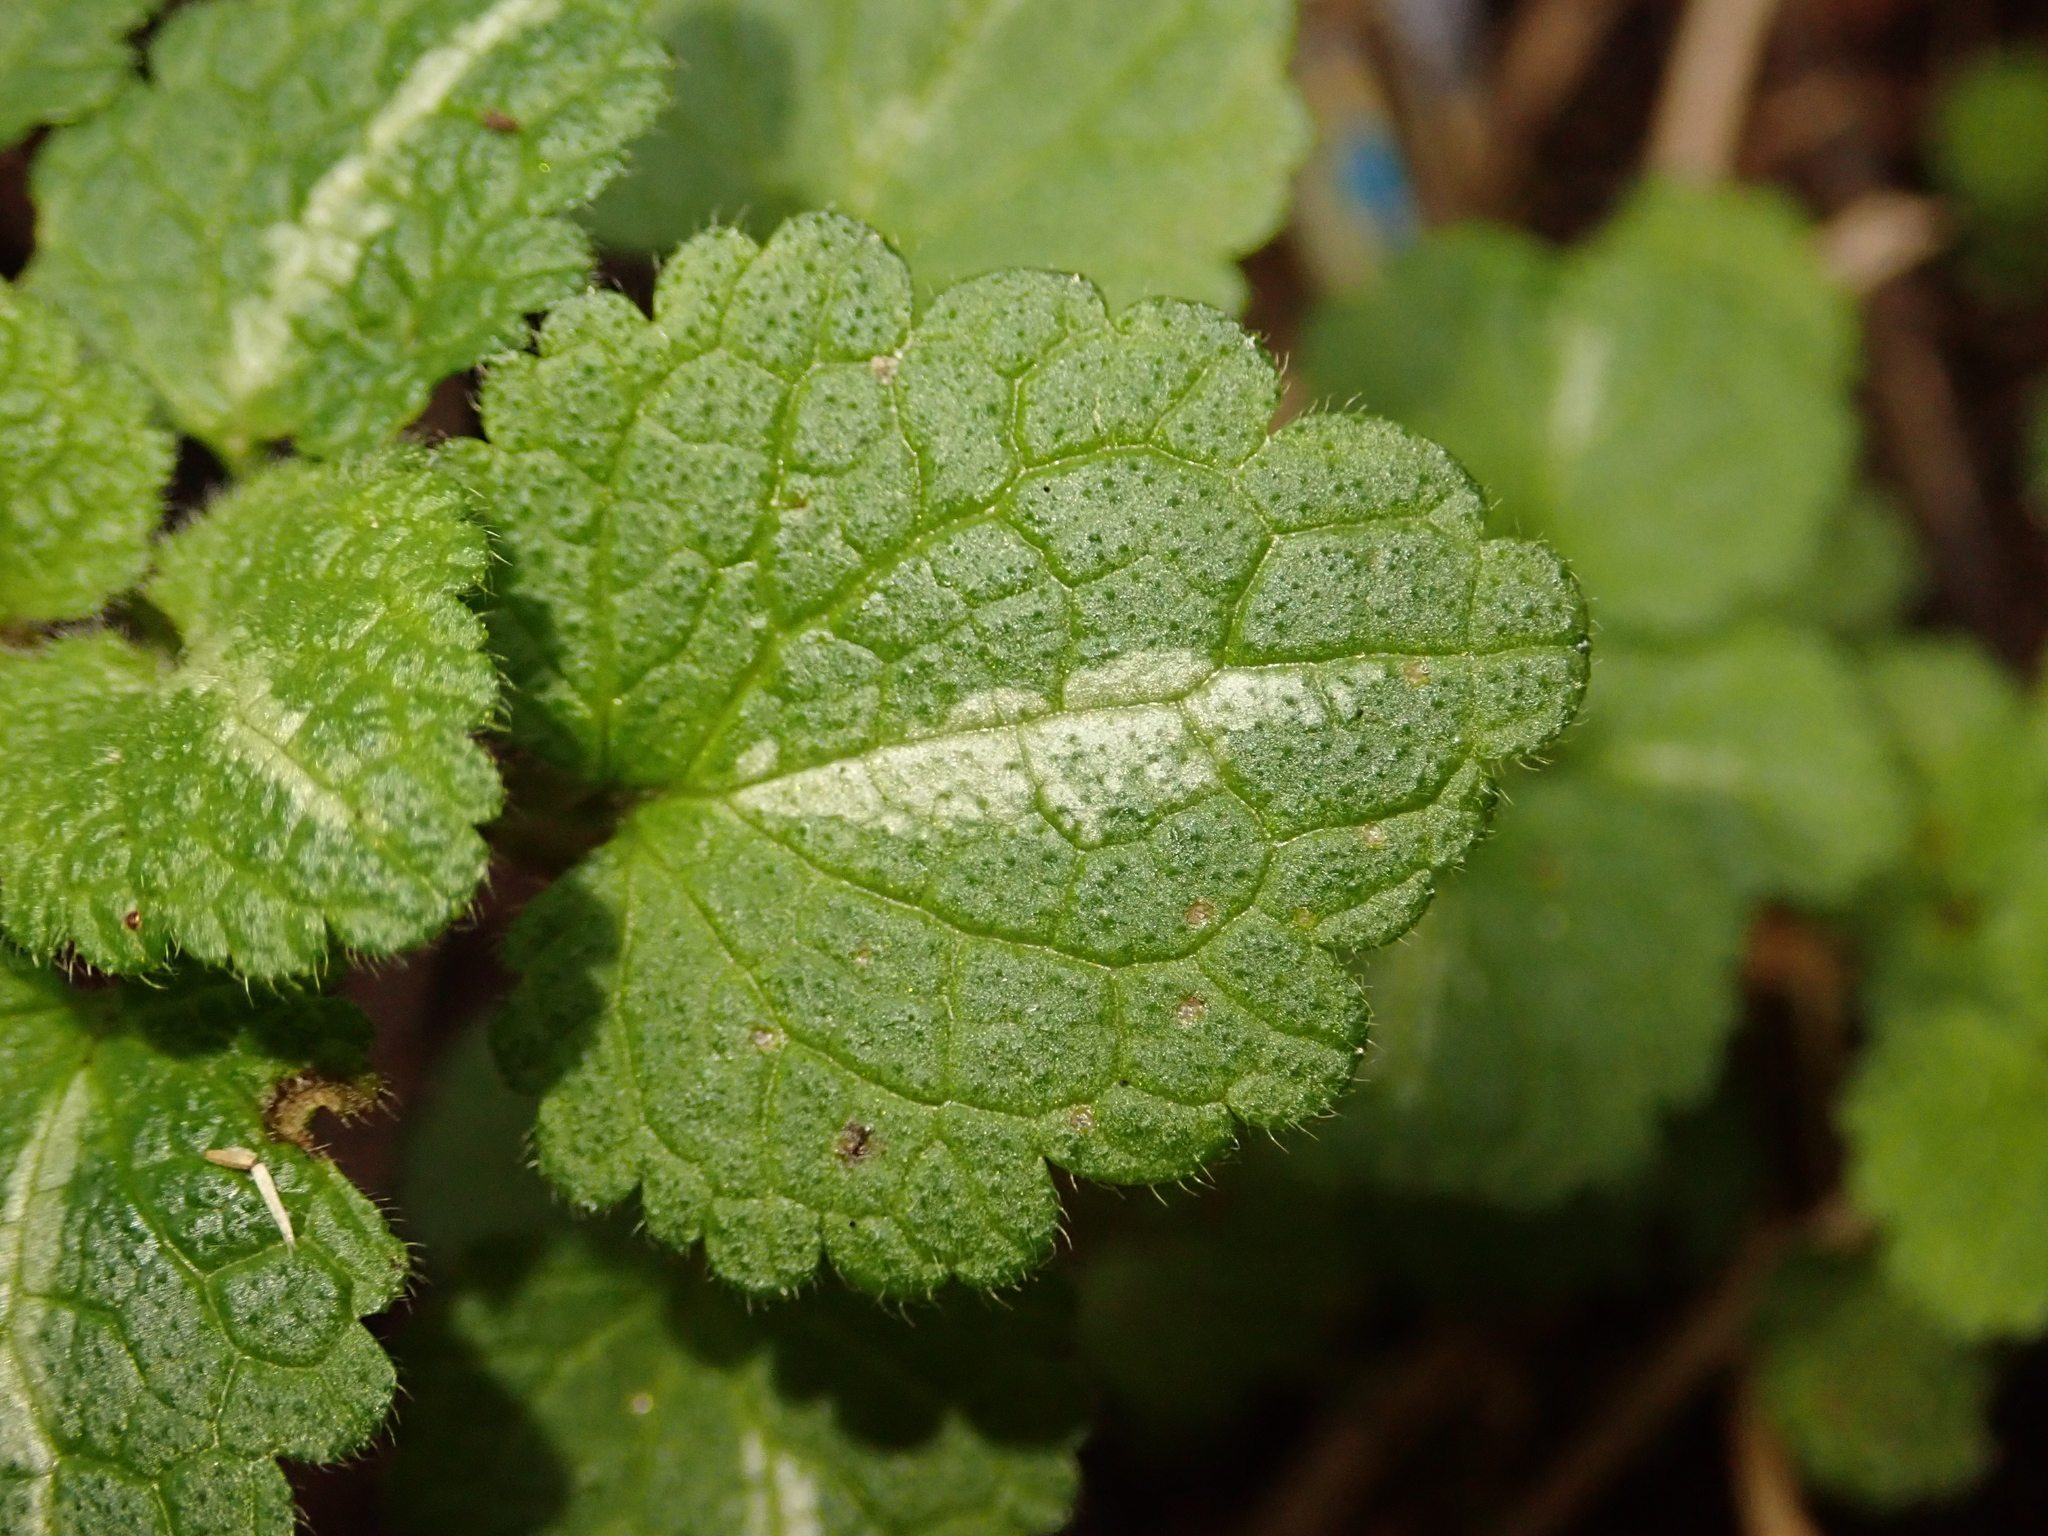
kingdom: Plantae
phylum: Tracheophyta
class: Magnoliopsida
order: Lamiales
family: Lamiaceae
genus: Lamium
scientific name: Lamium maculatum
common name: Spotted dead-nettle
